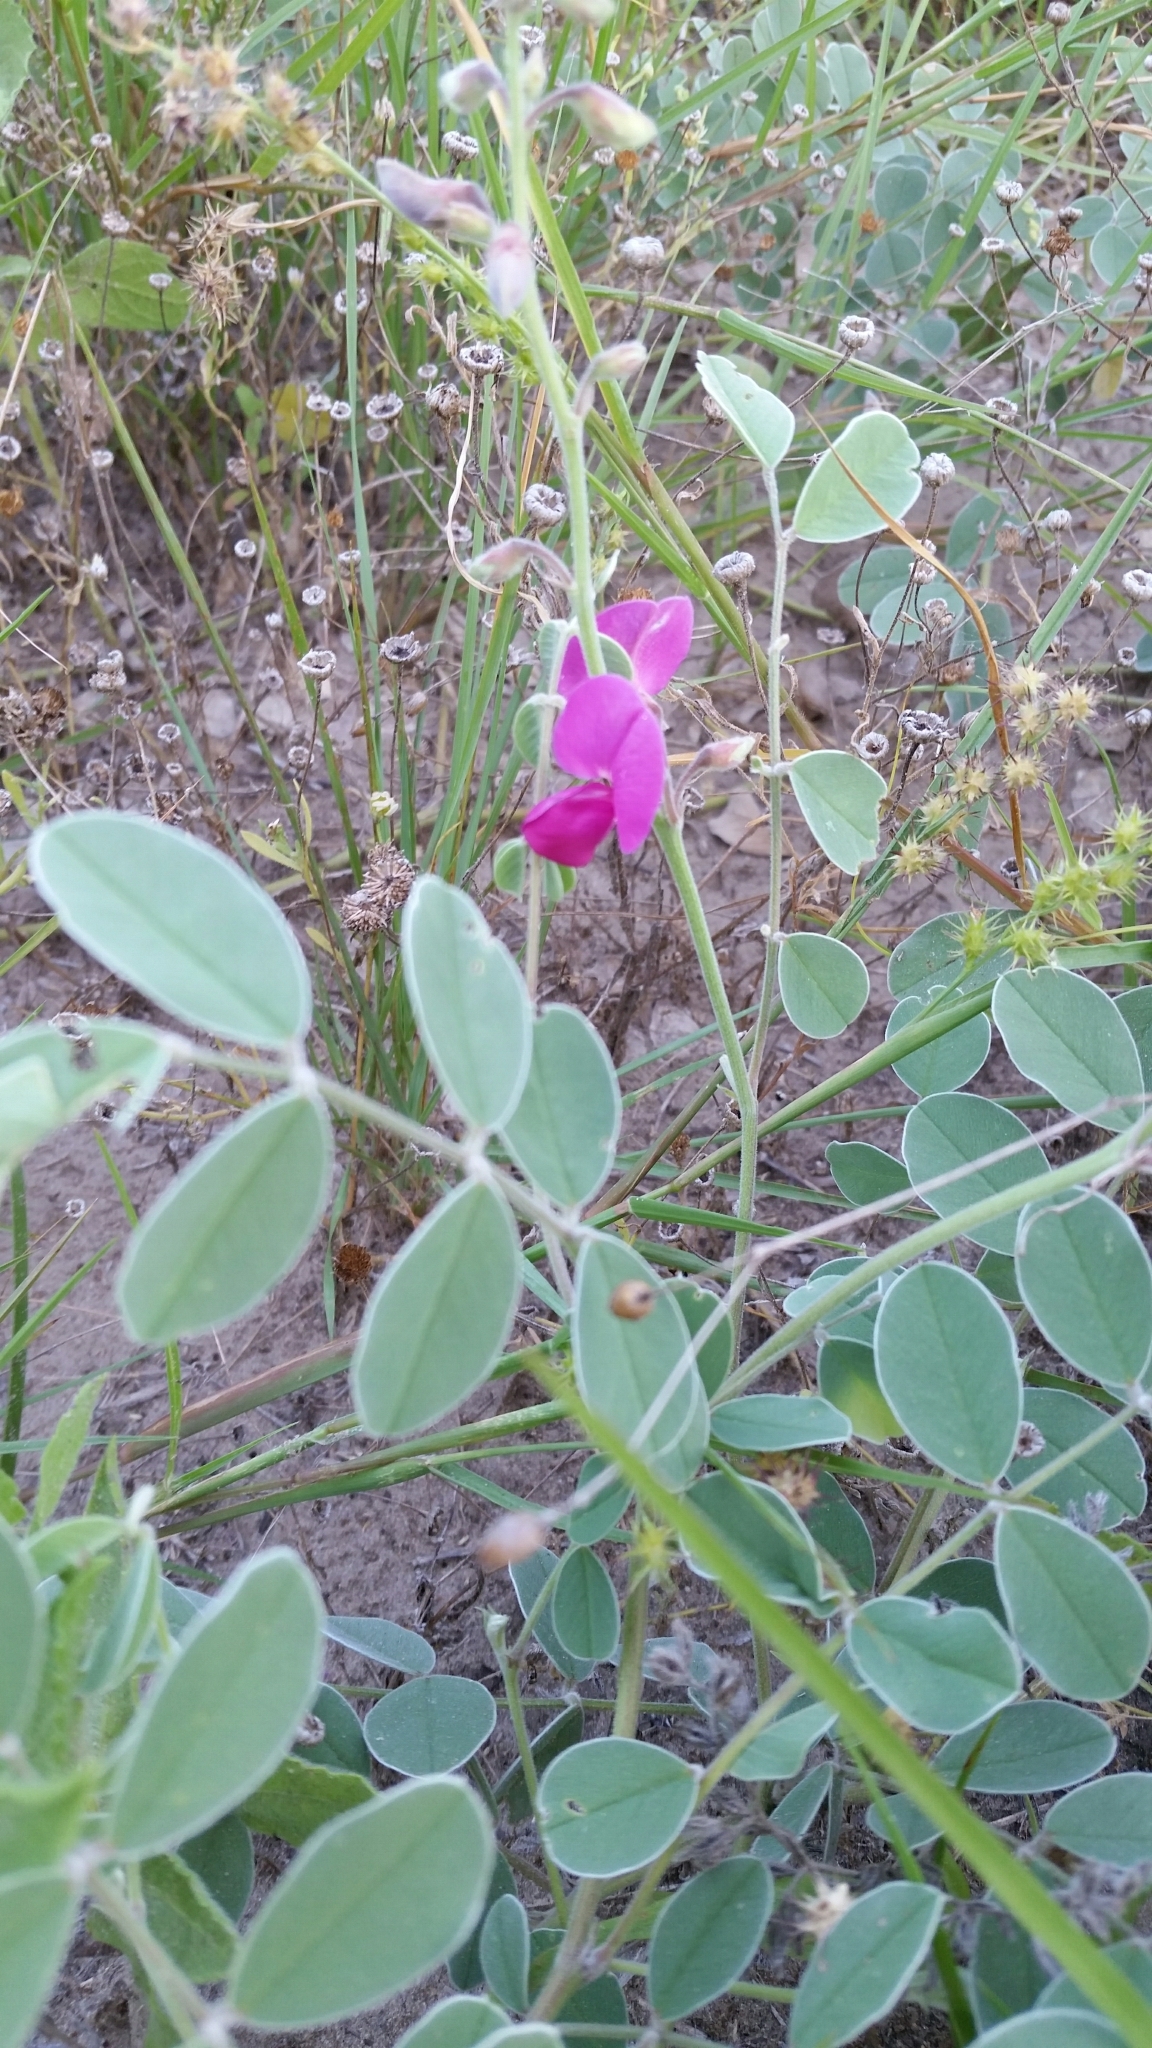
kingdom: Plantae
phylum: Tracheophyta
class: Magnoliopsida
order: Fabales
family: Fabaceae
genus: Tephrosia
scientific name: Tephrosia lindheimeri
